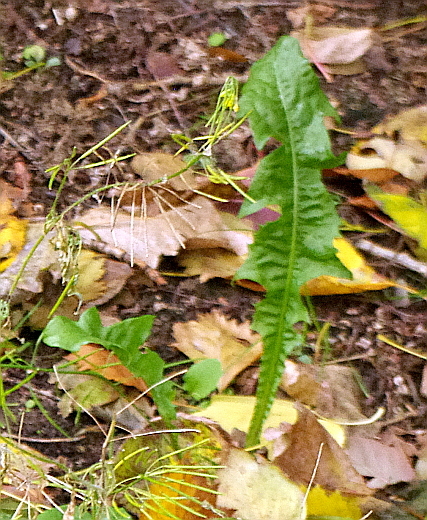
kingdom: Plantae
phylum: Tracheophyta
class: Magnoliopsida
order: Asterales
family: Asteraceae
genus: Taraxacum
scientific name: Taraxacum officinale
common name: Common dandelion
